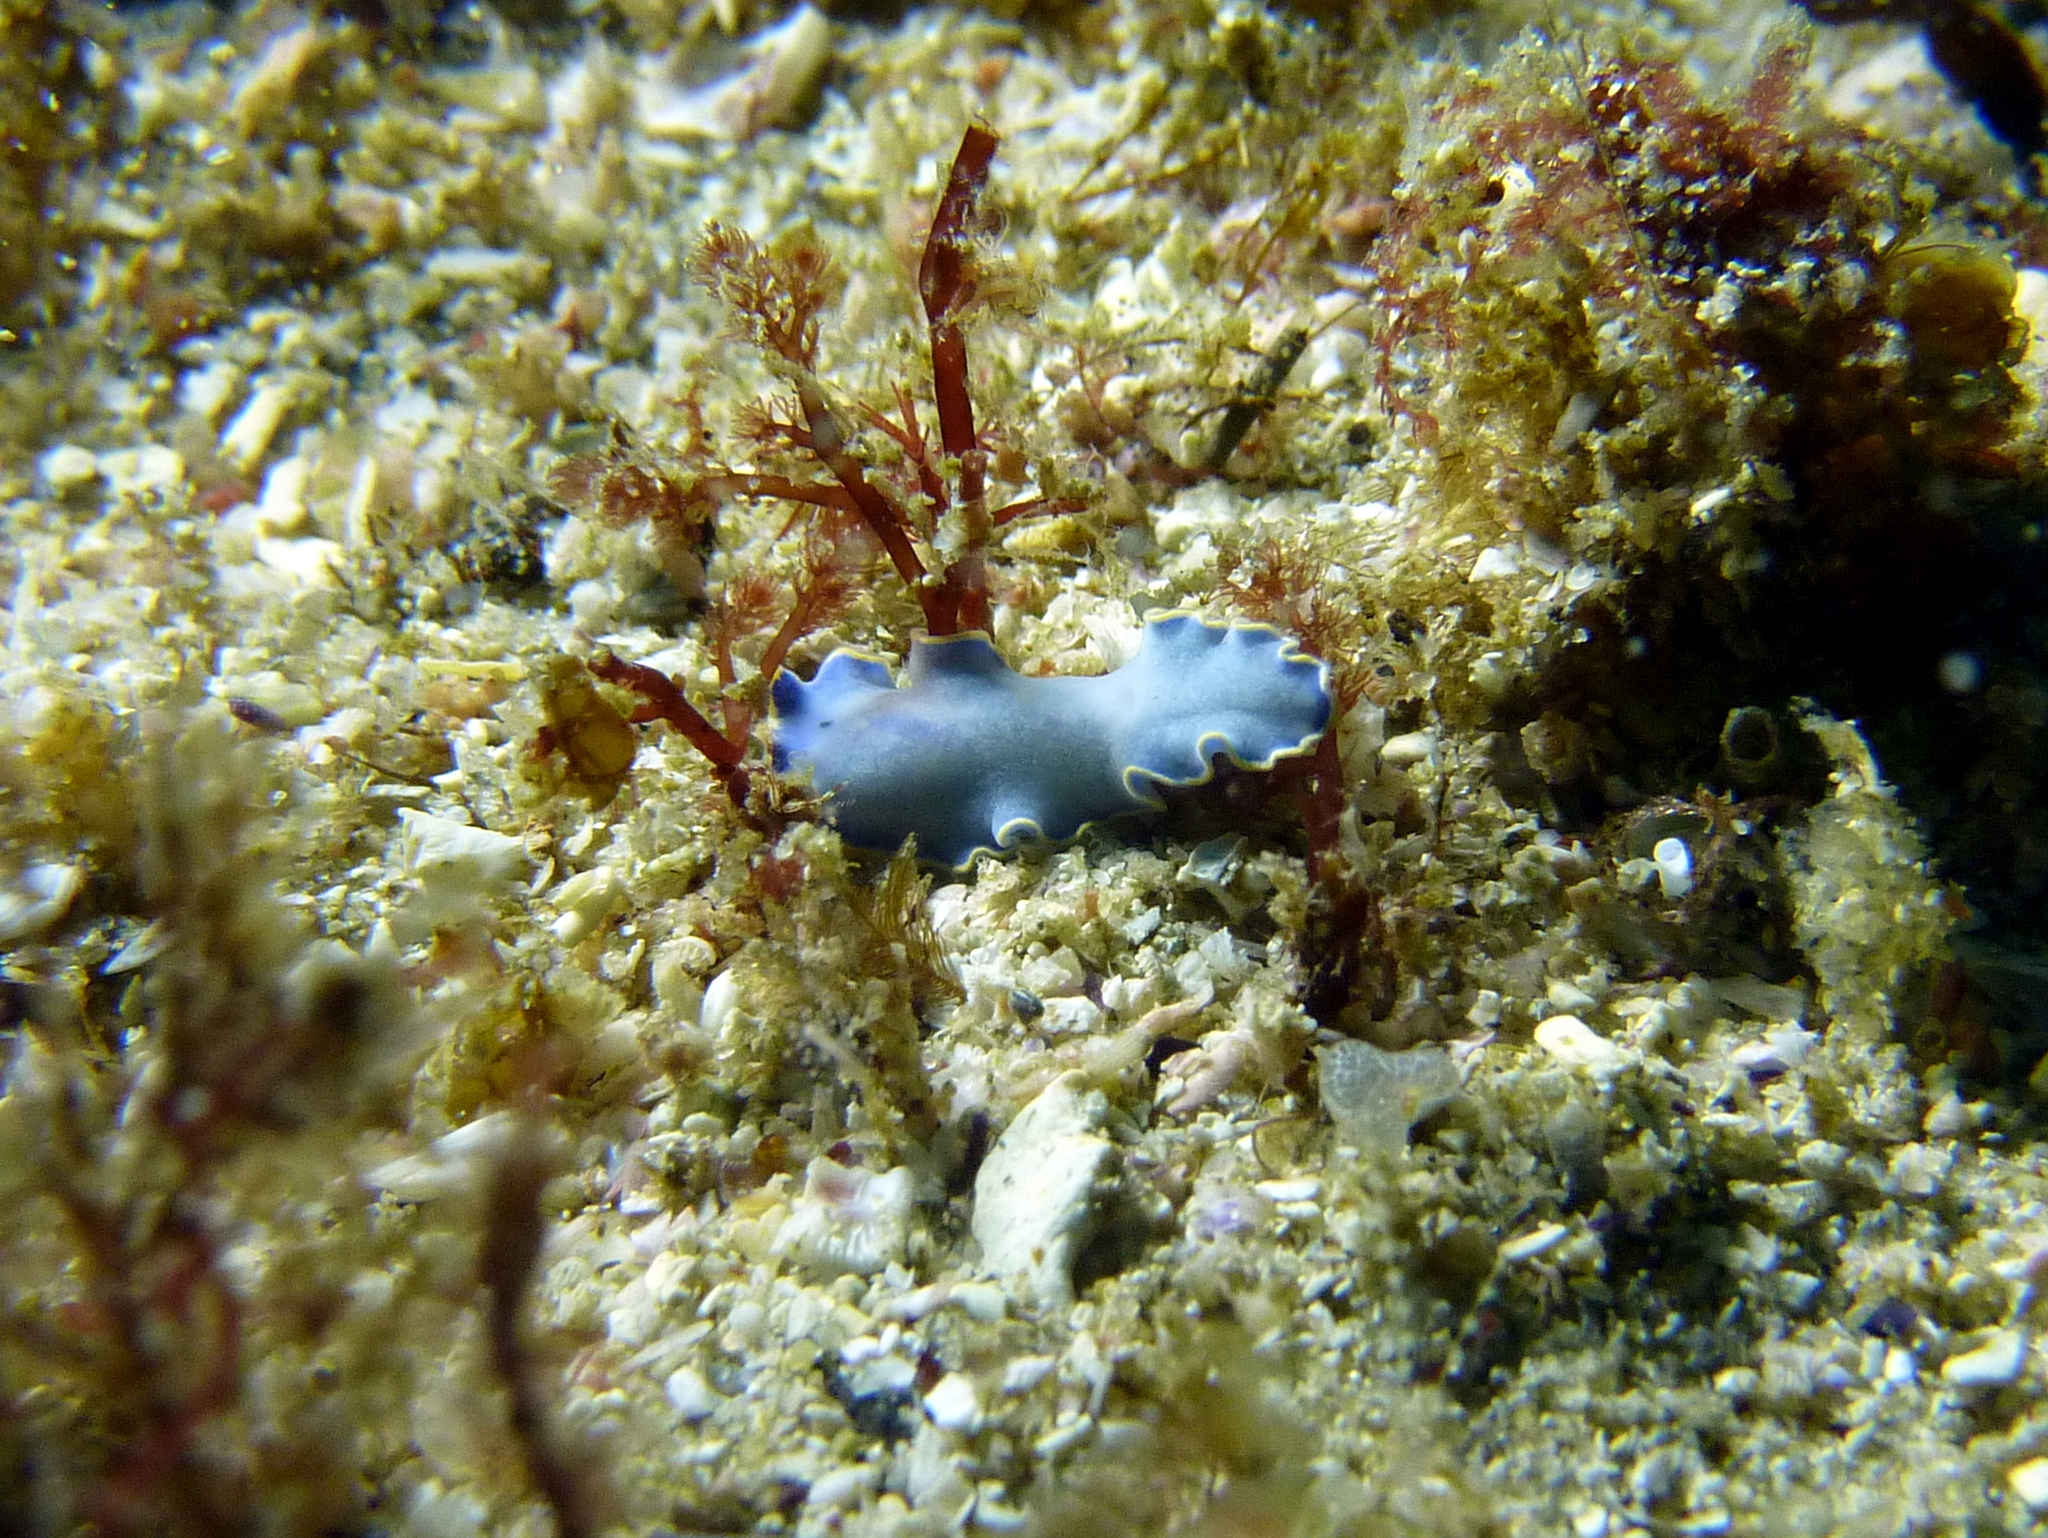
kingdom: Animalia
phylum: Platyhelminthes
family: Stylostomidae
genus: Cycloporus
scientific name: Cycloporus venetus
